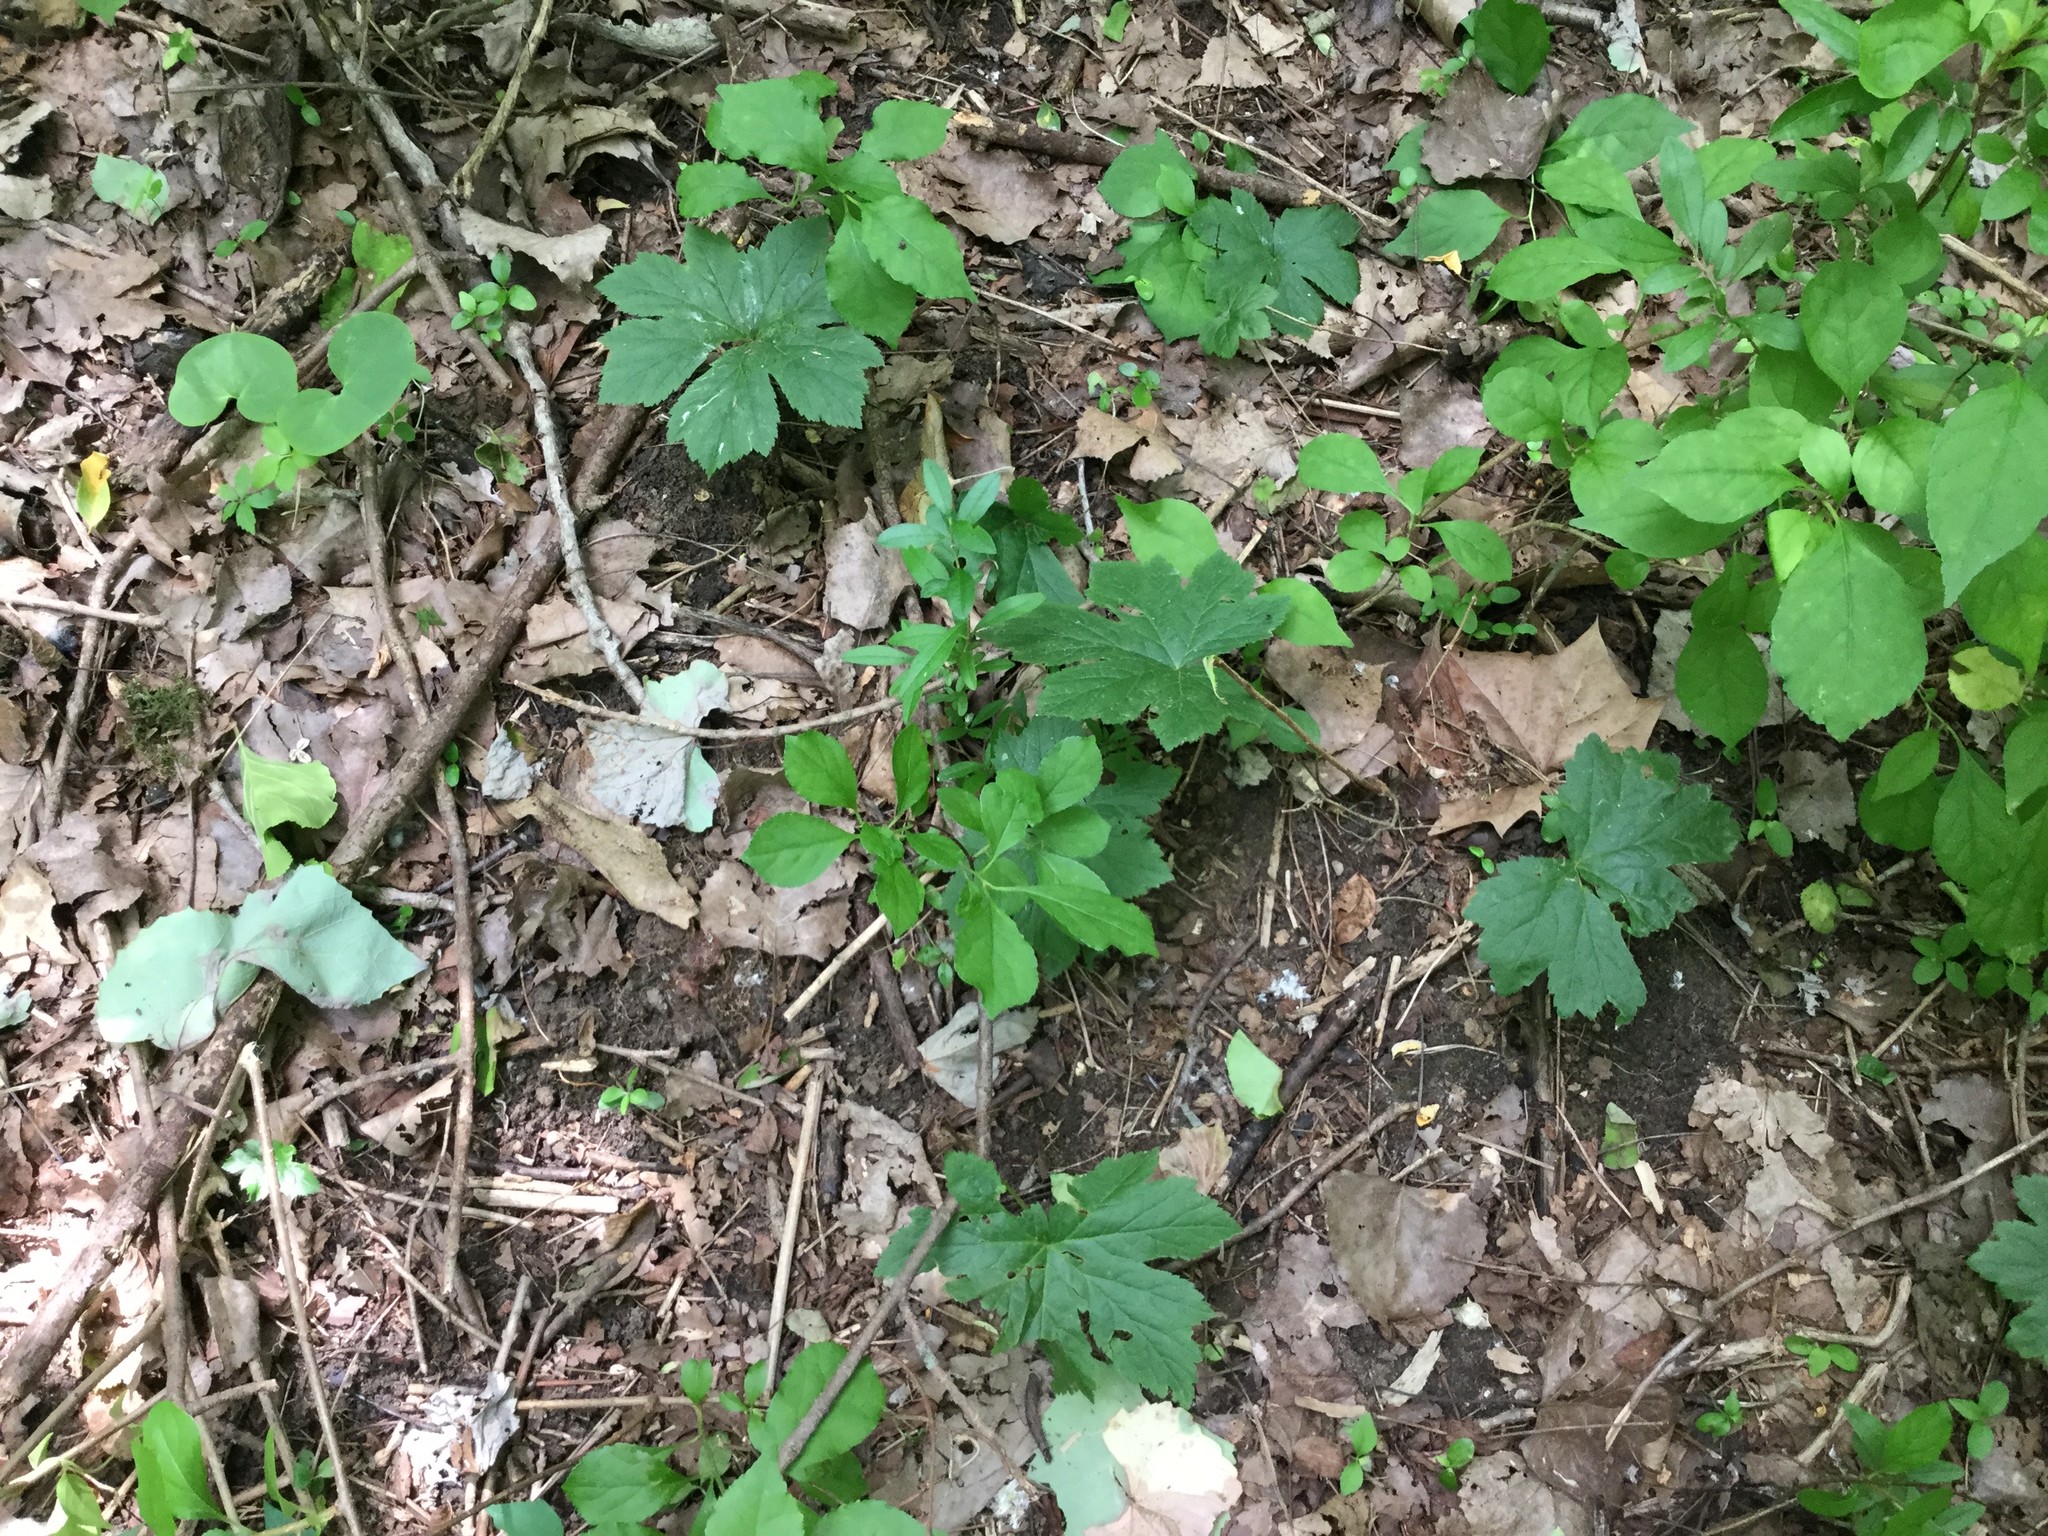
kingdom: Plantae
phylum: Tracheophyta
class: Magnoliopsida
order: Ranunculales
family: Ranunculaceae
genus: Hydrastis
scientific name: Hydrastis canadensis
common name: Goldenseal
